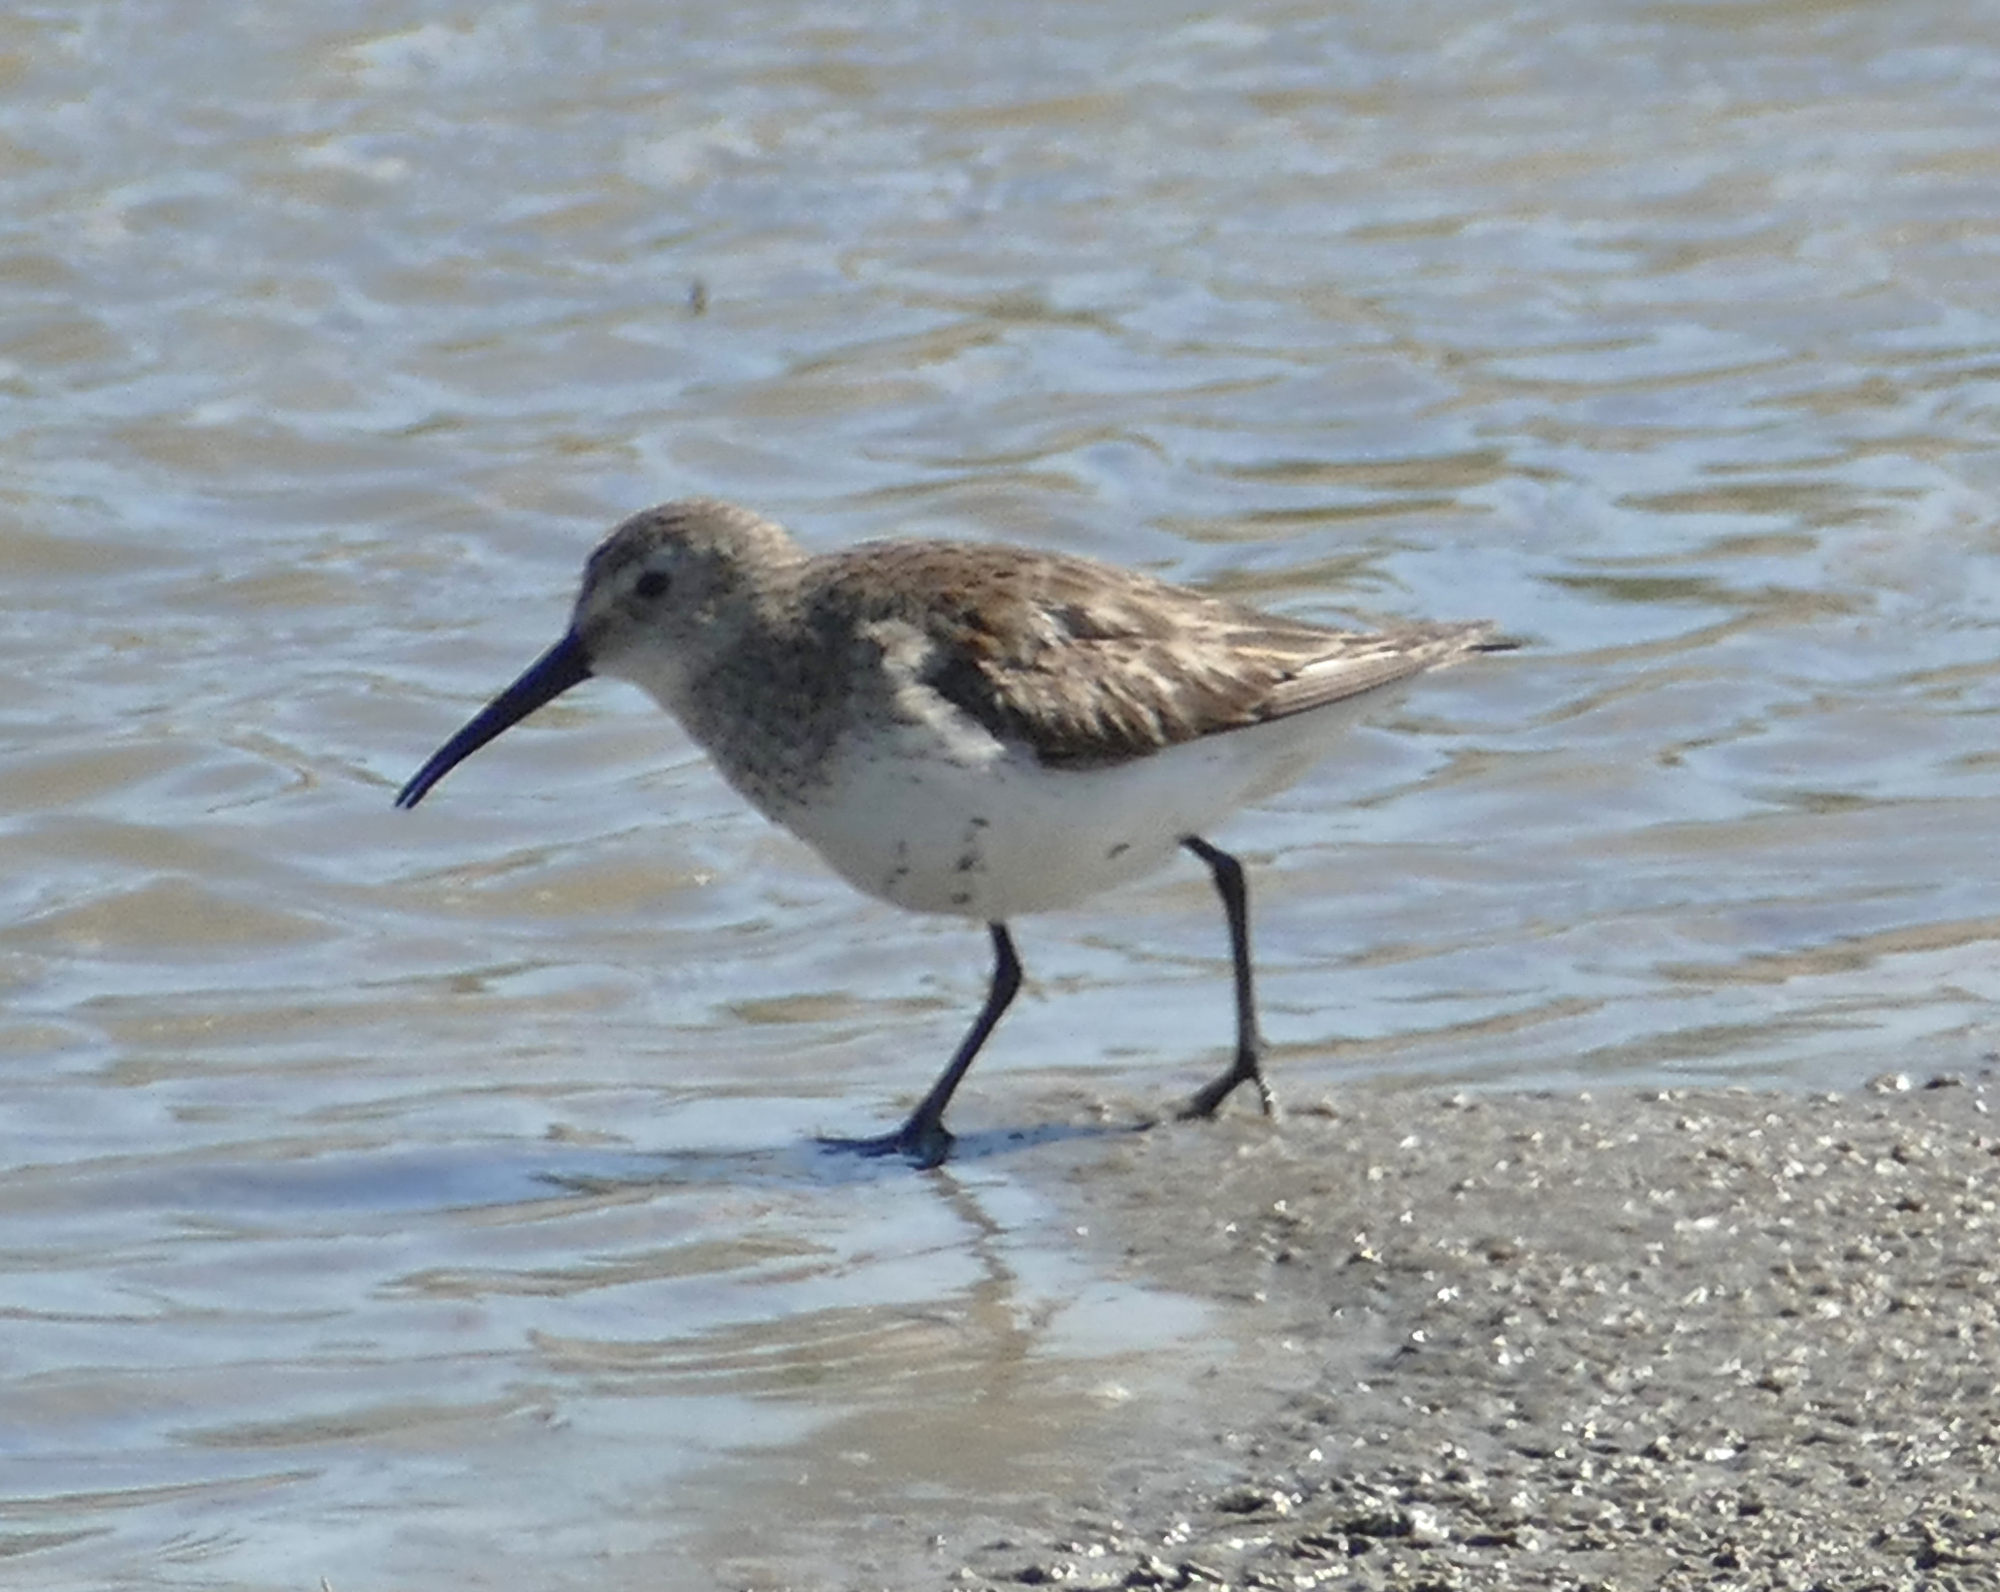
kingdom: Animalia
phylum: Chordata
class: Aves
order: Charadriiformes
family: Scolopacidae
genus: Calidris
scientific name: Calidris alpina
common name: Dunlin
